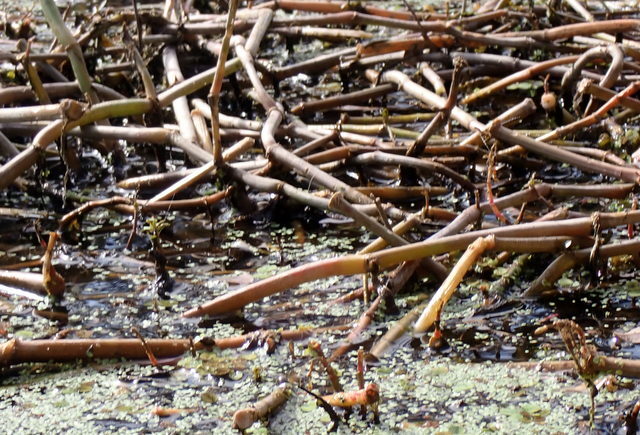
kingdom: Plantae
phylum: Tracheophyta
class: Magnoliopsida
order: Caryophyllales
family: Amaranthaceae
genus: Alternanthera
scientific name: Alternanthera philoxeroides
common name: Alligatorweed
